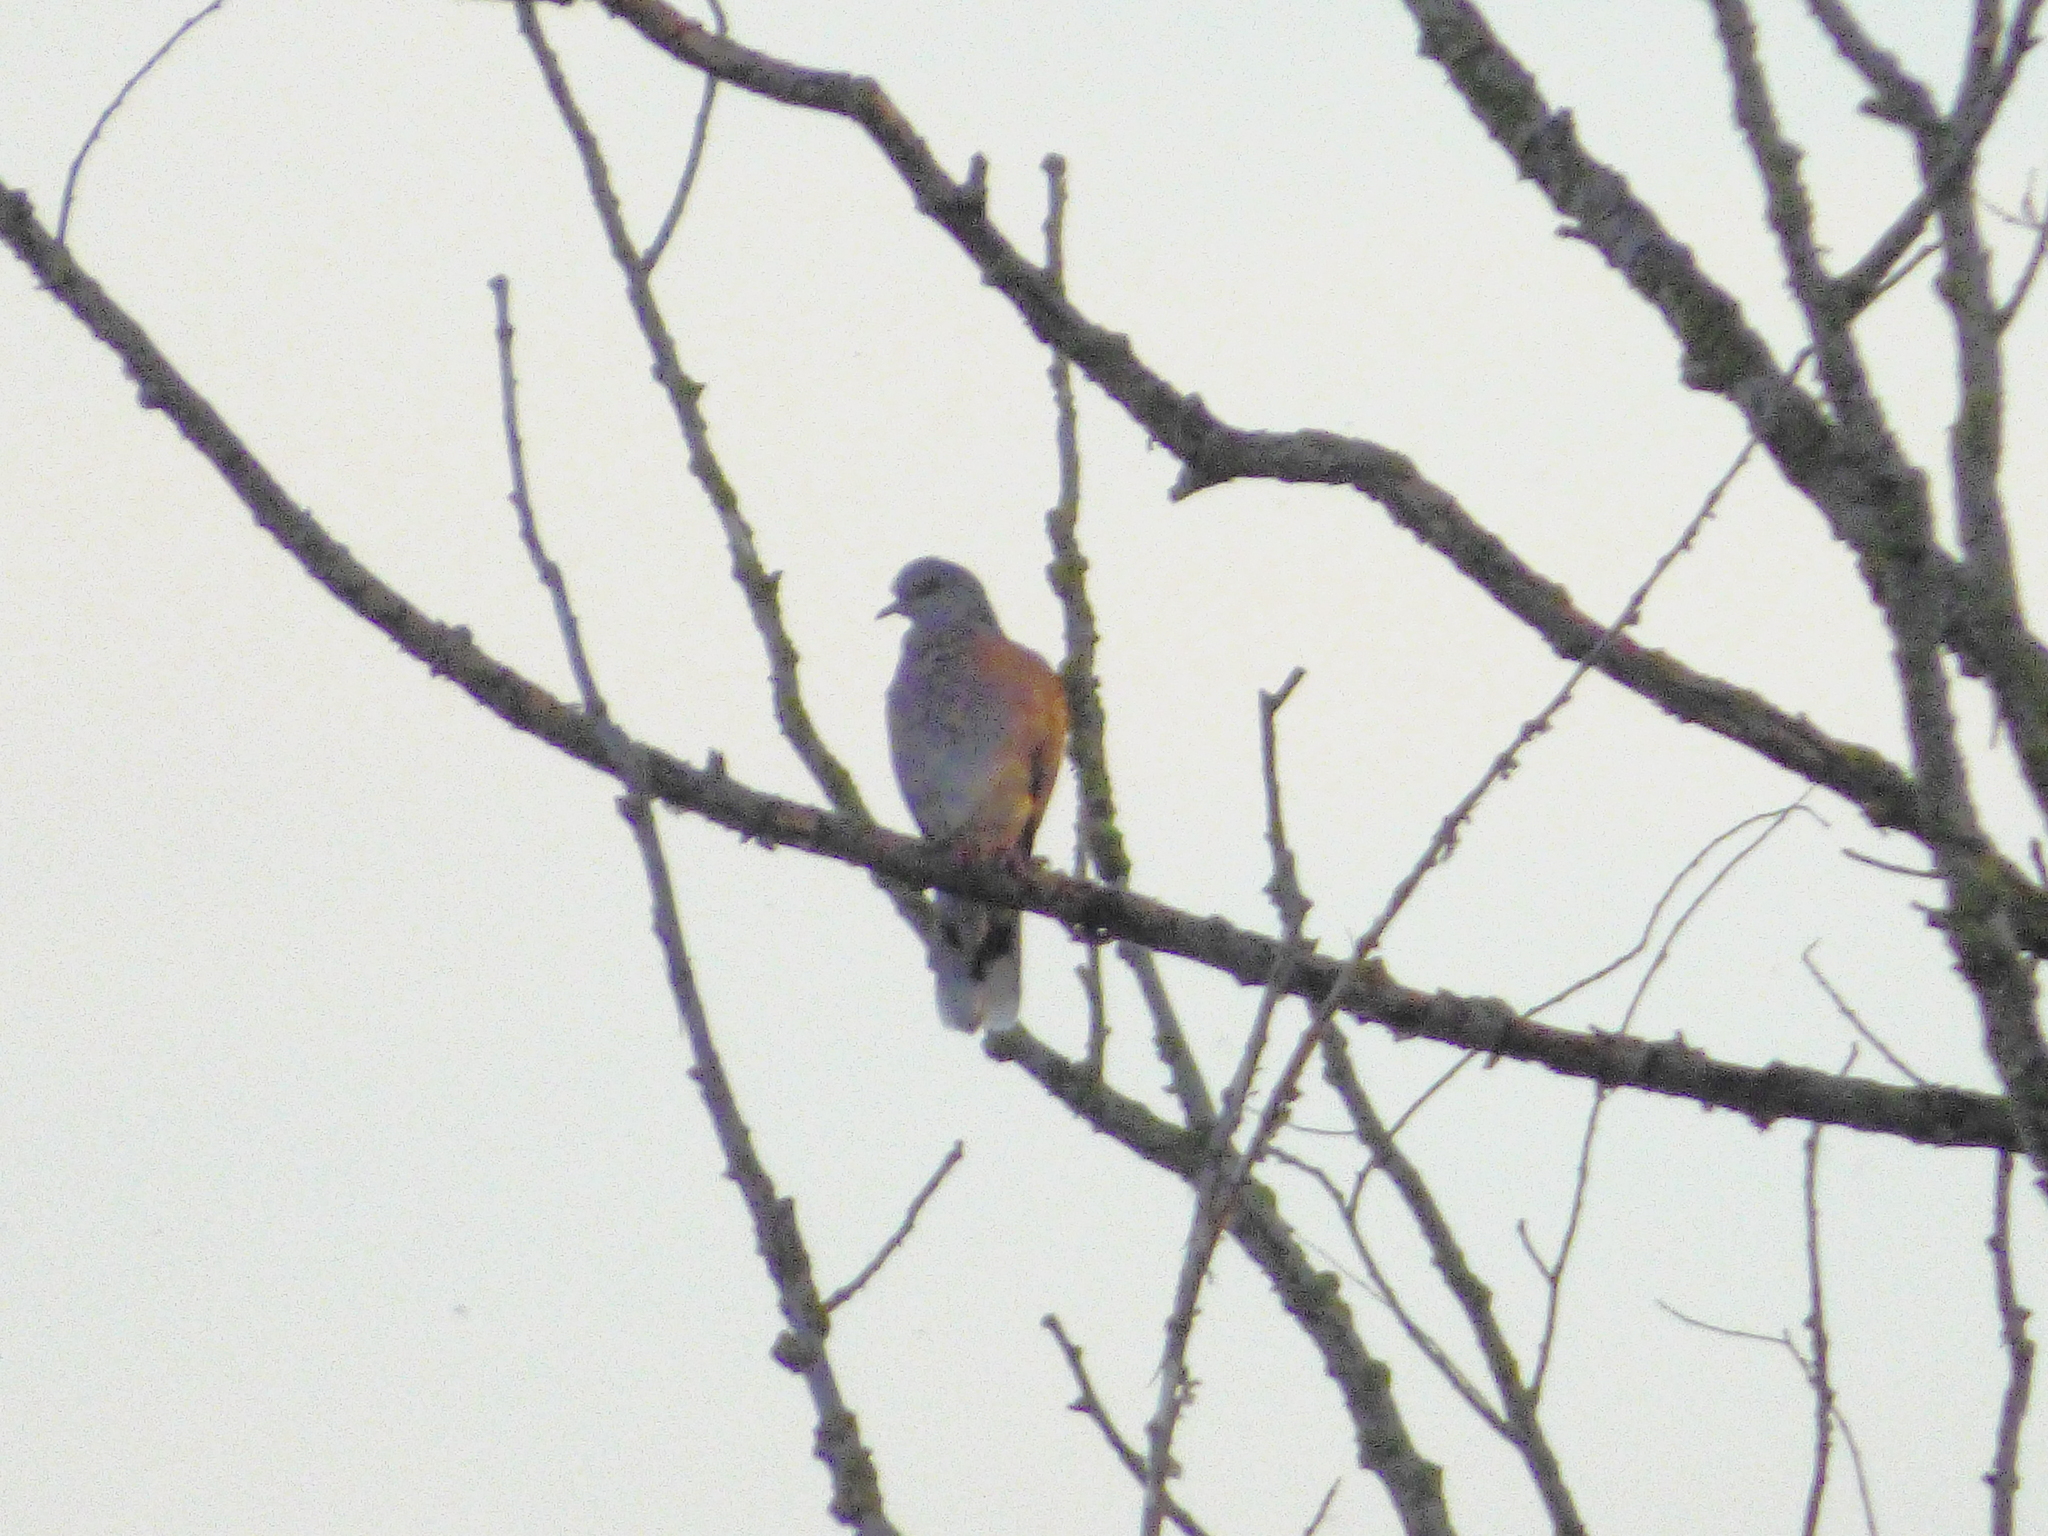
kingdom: Animalia
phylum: Chordata
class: Aves
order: Columbiformes
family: Columbidae
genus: Streptopelia
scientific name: Streptopelia turtur
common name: European turtle dove
